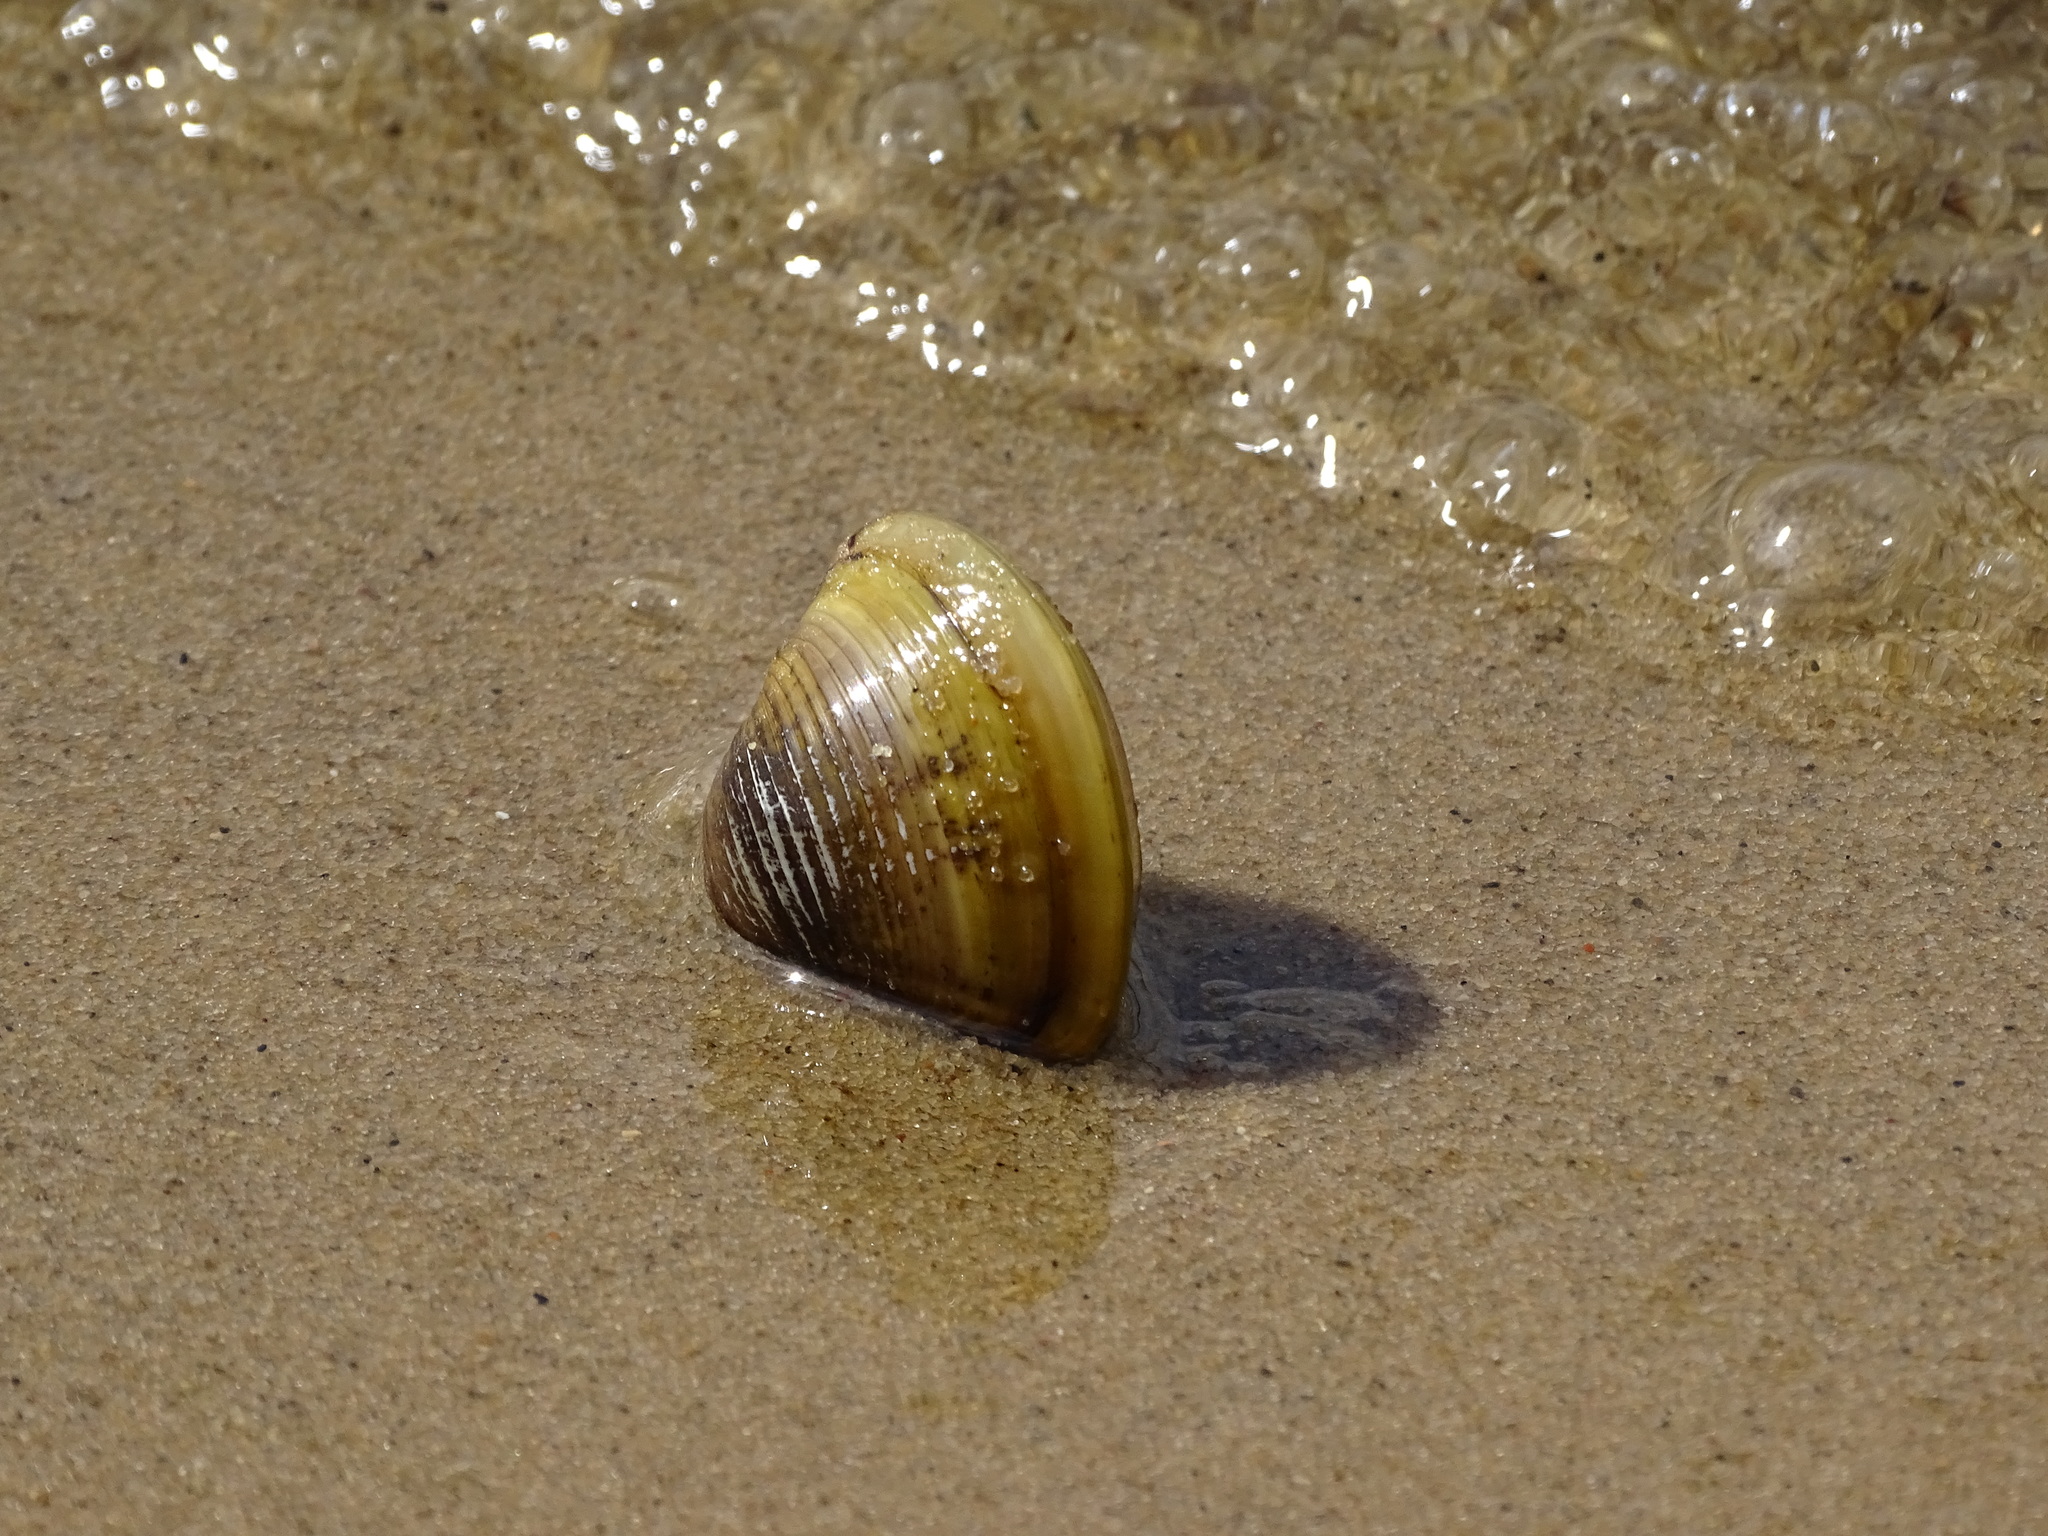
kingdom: Animalia
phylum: Mollusca
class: Bivalvia
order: Venerida
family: Cyrenidae
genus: Corbicula
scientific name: Corbicula fluminea
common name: Asian clam
